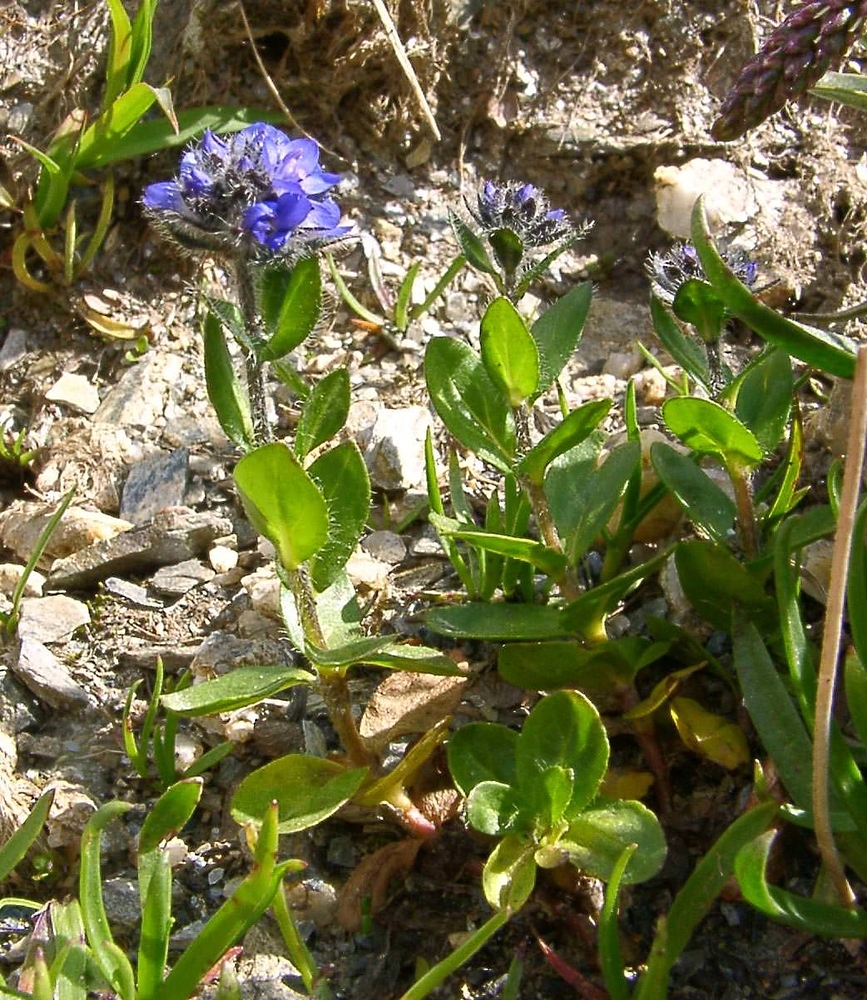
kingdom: Plantae
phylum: Tracheophyta
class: Magnoliopsida
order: Lamiales
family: Plantaginaceae
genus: Veronica
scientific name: Veronica alpina
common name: Alpine speedwell
